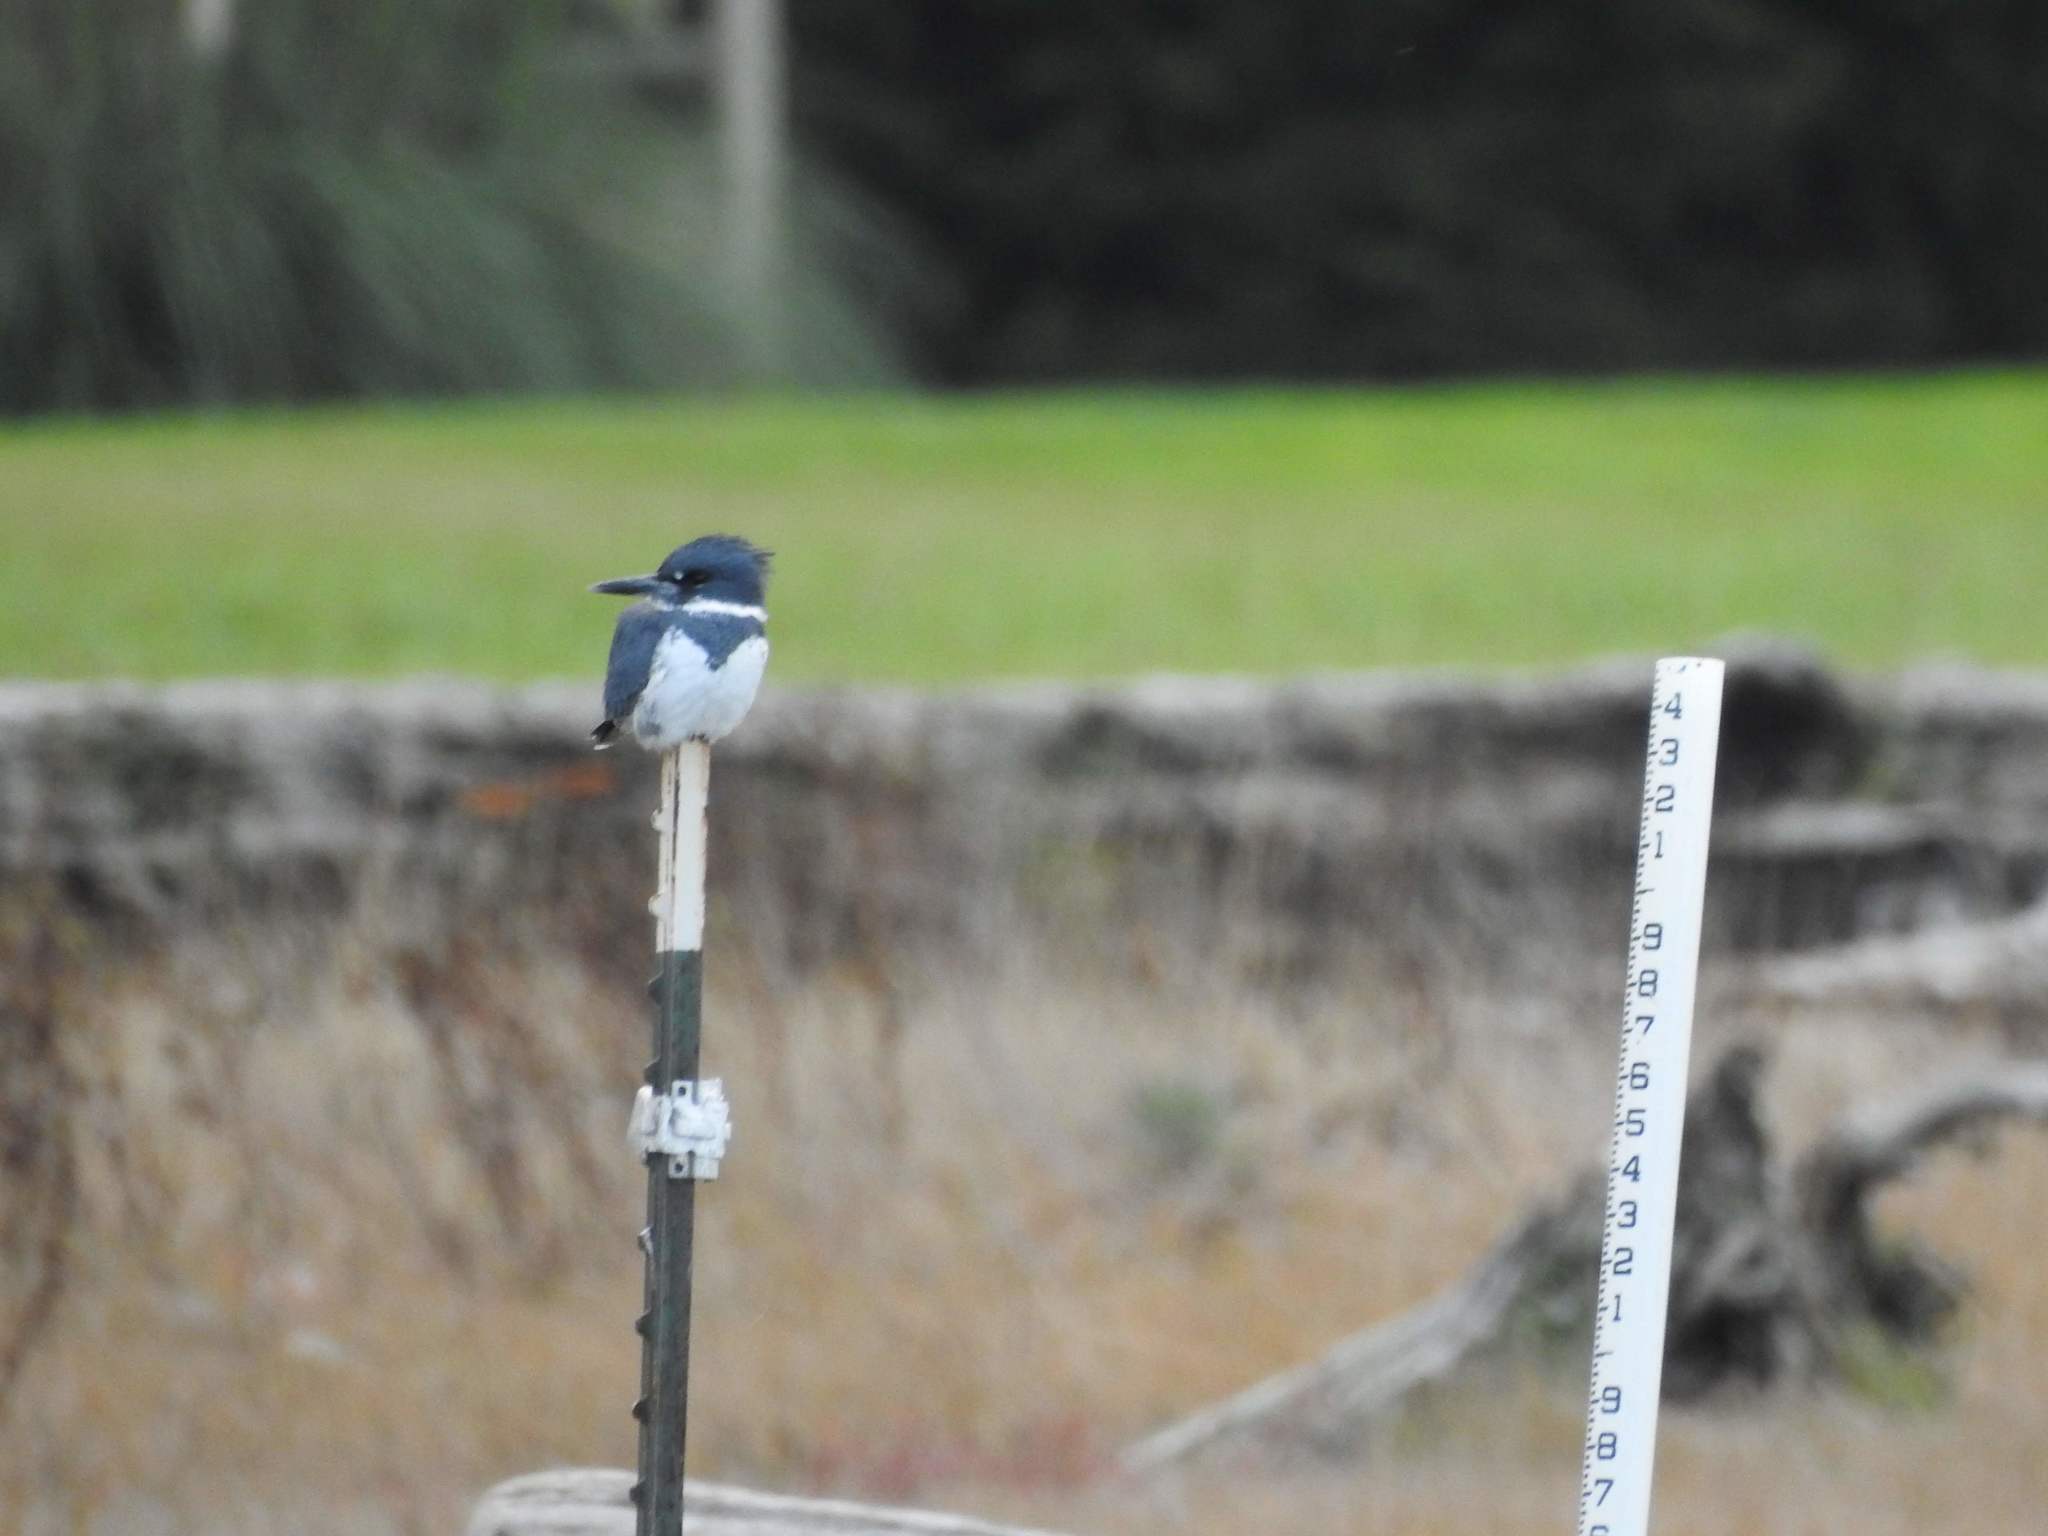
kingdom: Animalia
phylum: Chordata
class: Aves
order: Coraciiformes
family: Alcedinidae
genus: Megaceryle
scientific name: Megaceryle alcyon
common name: Belted kingfisher
